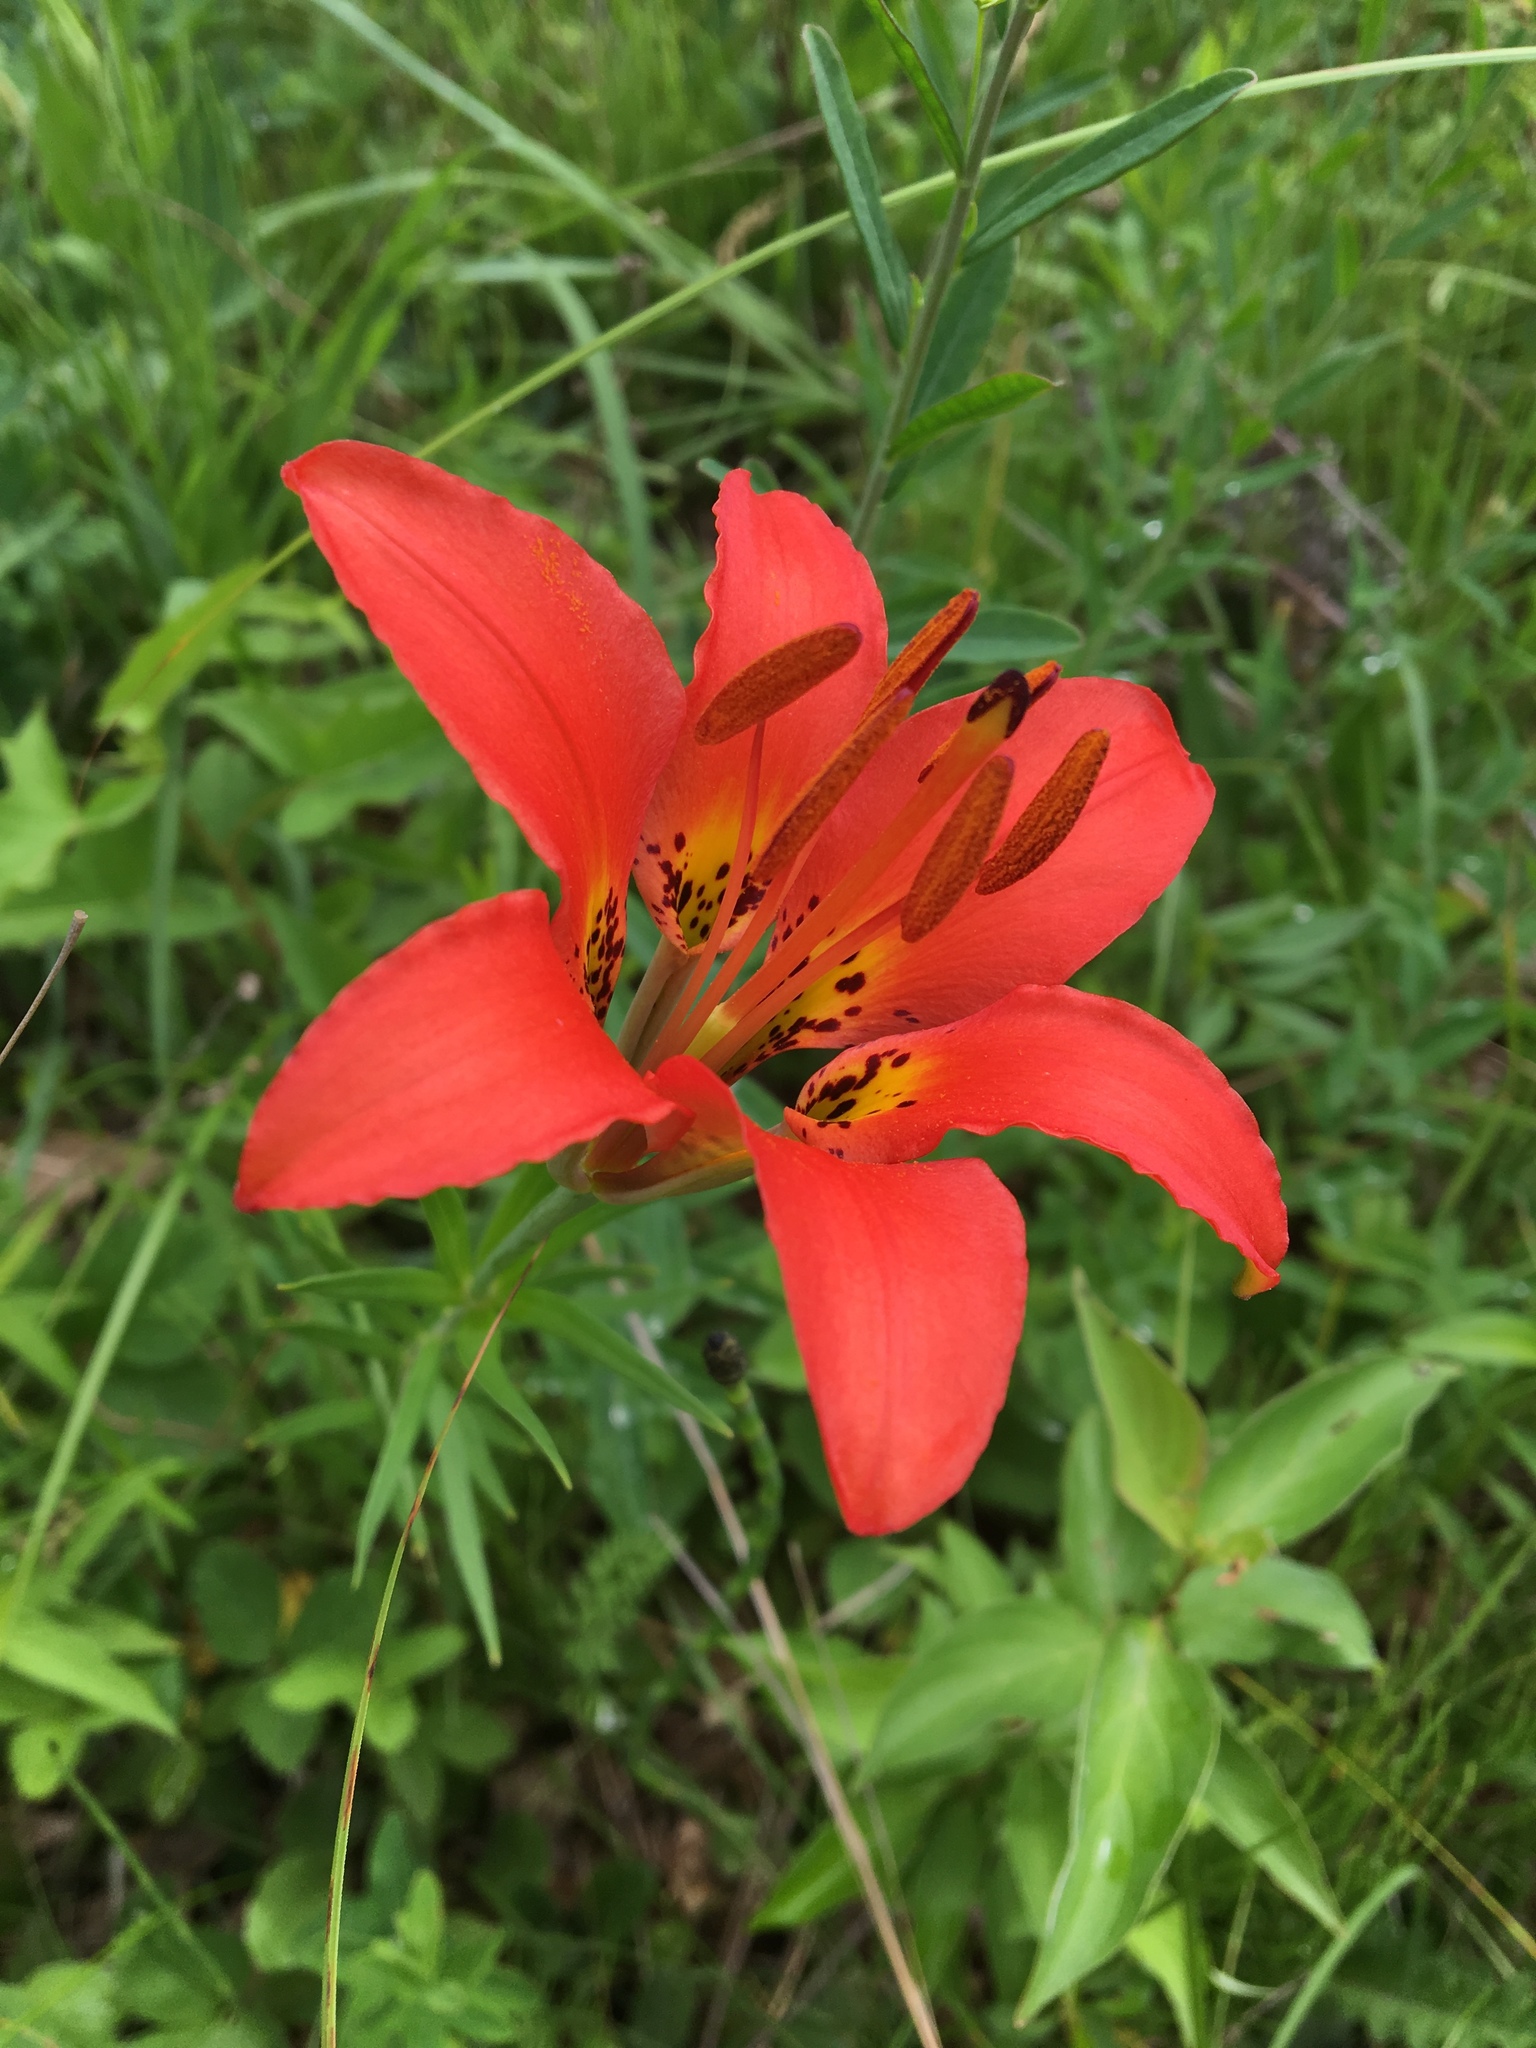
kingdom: Plantae
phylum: Tracheophyta
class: Liliopsida
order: Liliales
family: Liliaceae
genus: Lilium
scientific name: Lilium philadelphicum
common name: Red lily
